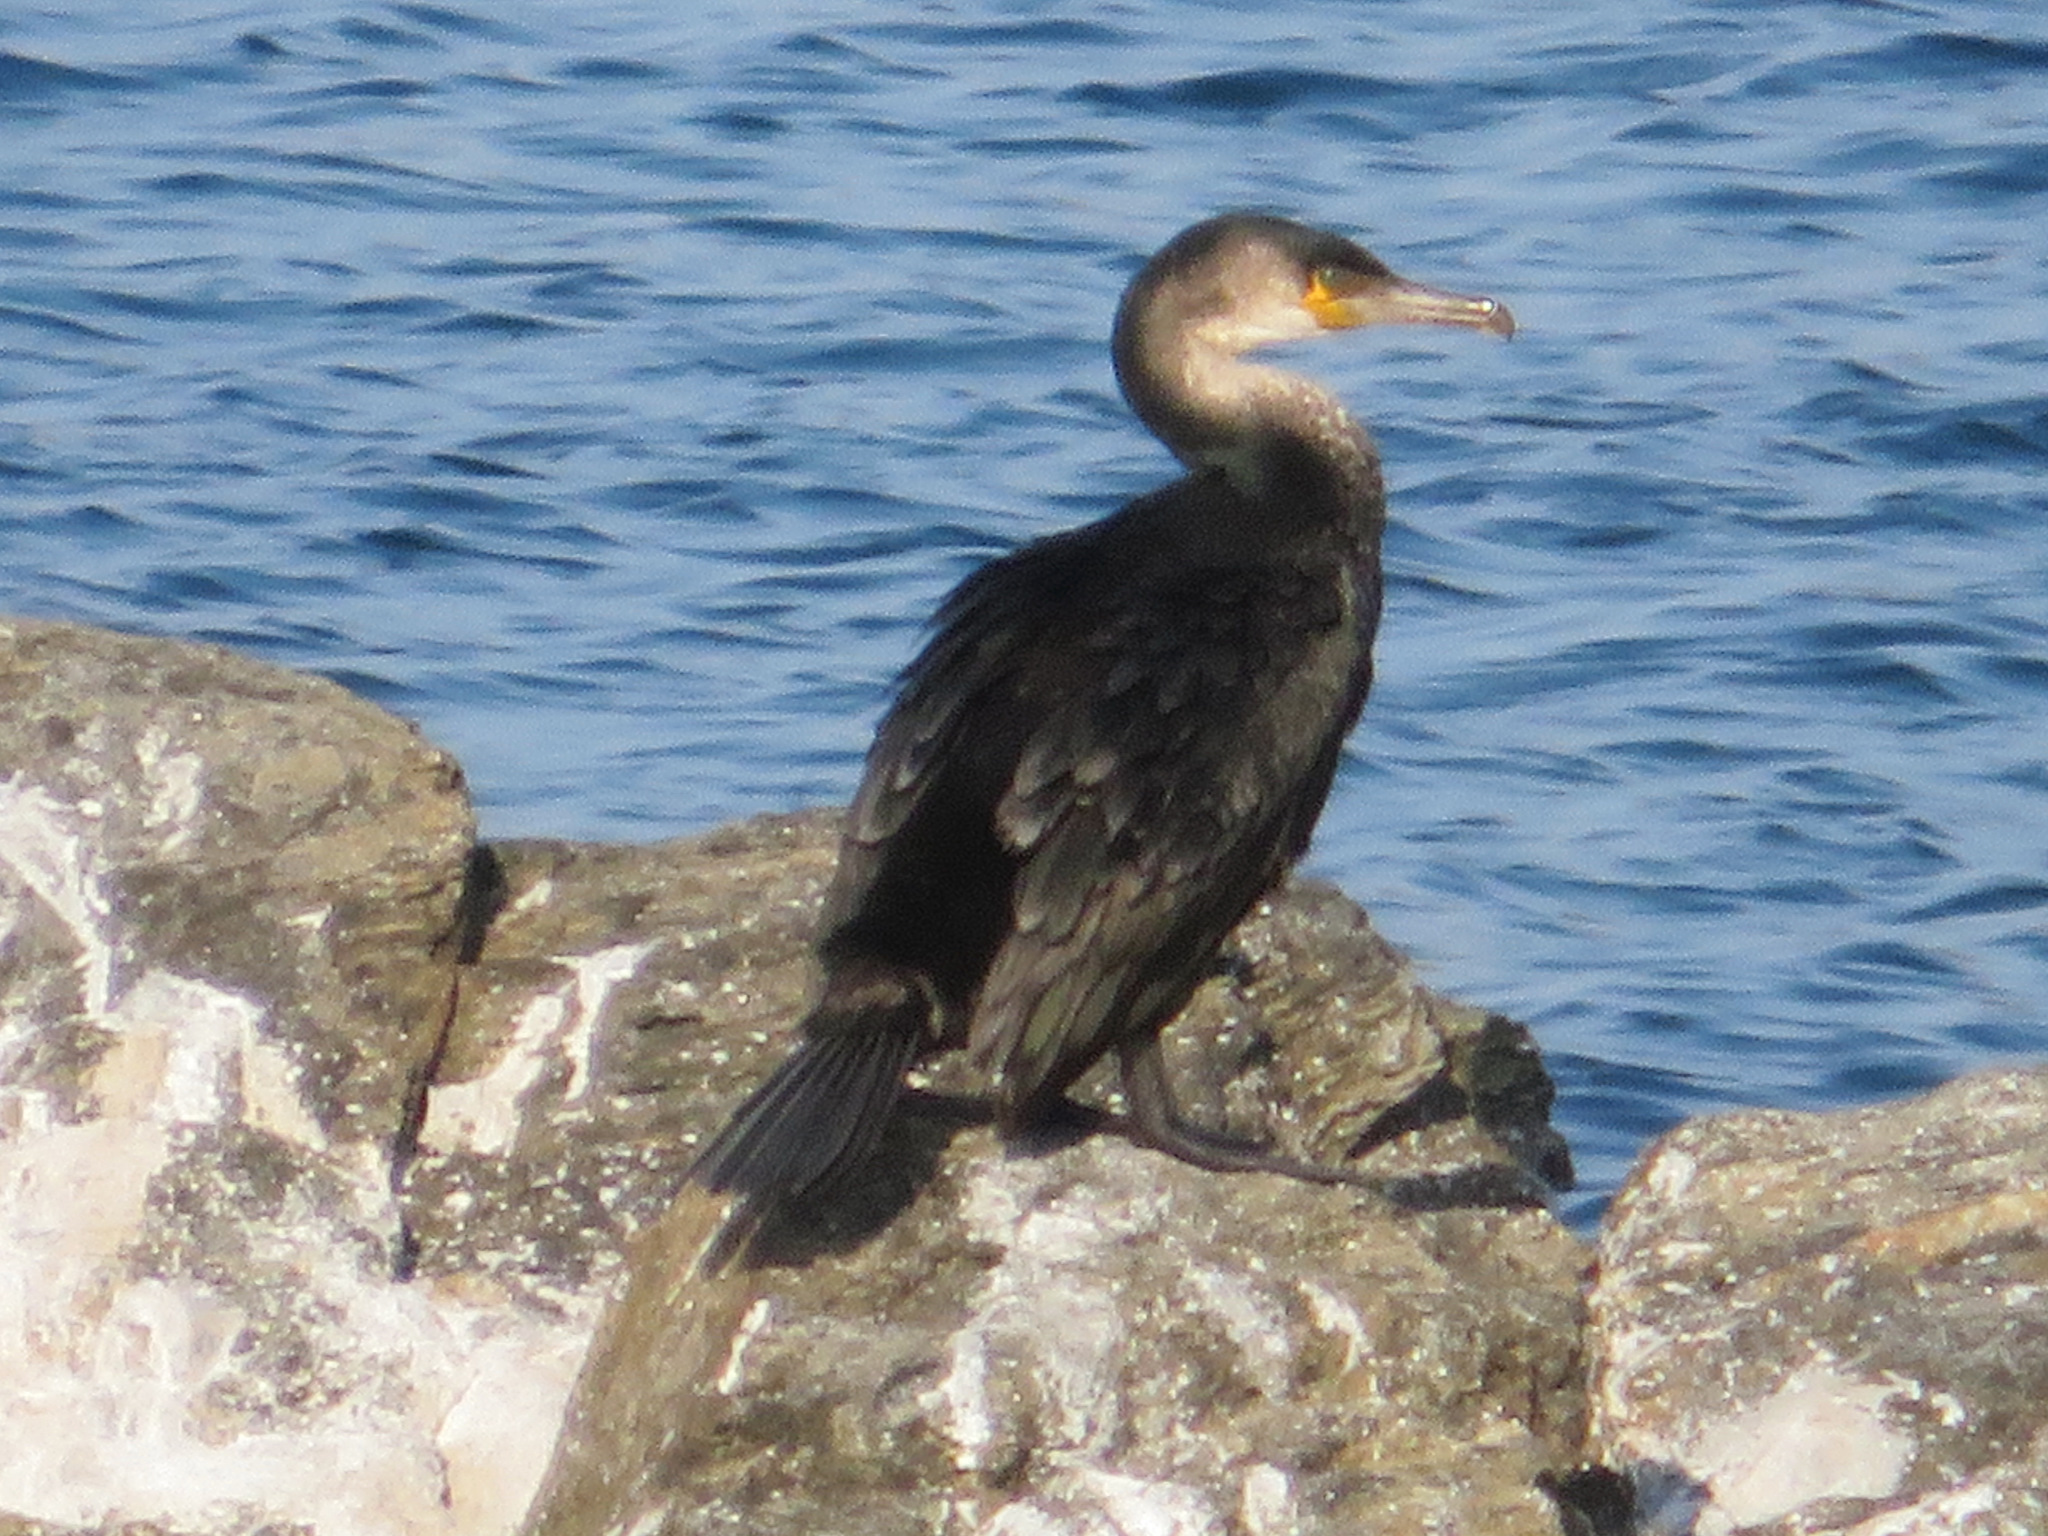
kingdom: Animalia
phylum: Chordata
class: Aves
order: Suliformes
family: Phalacrocoracidae
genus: Phalacrocorax
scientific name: Phalacrocorax capillatus
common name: Japanese cormorant
